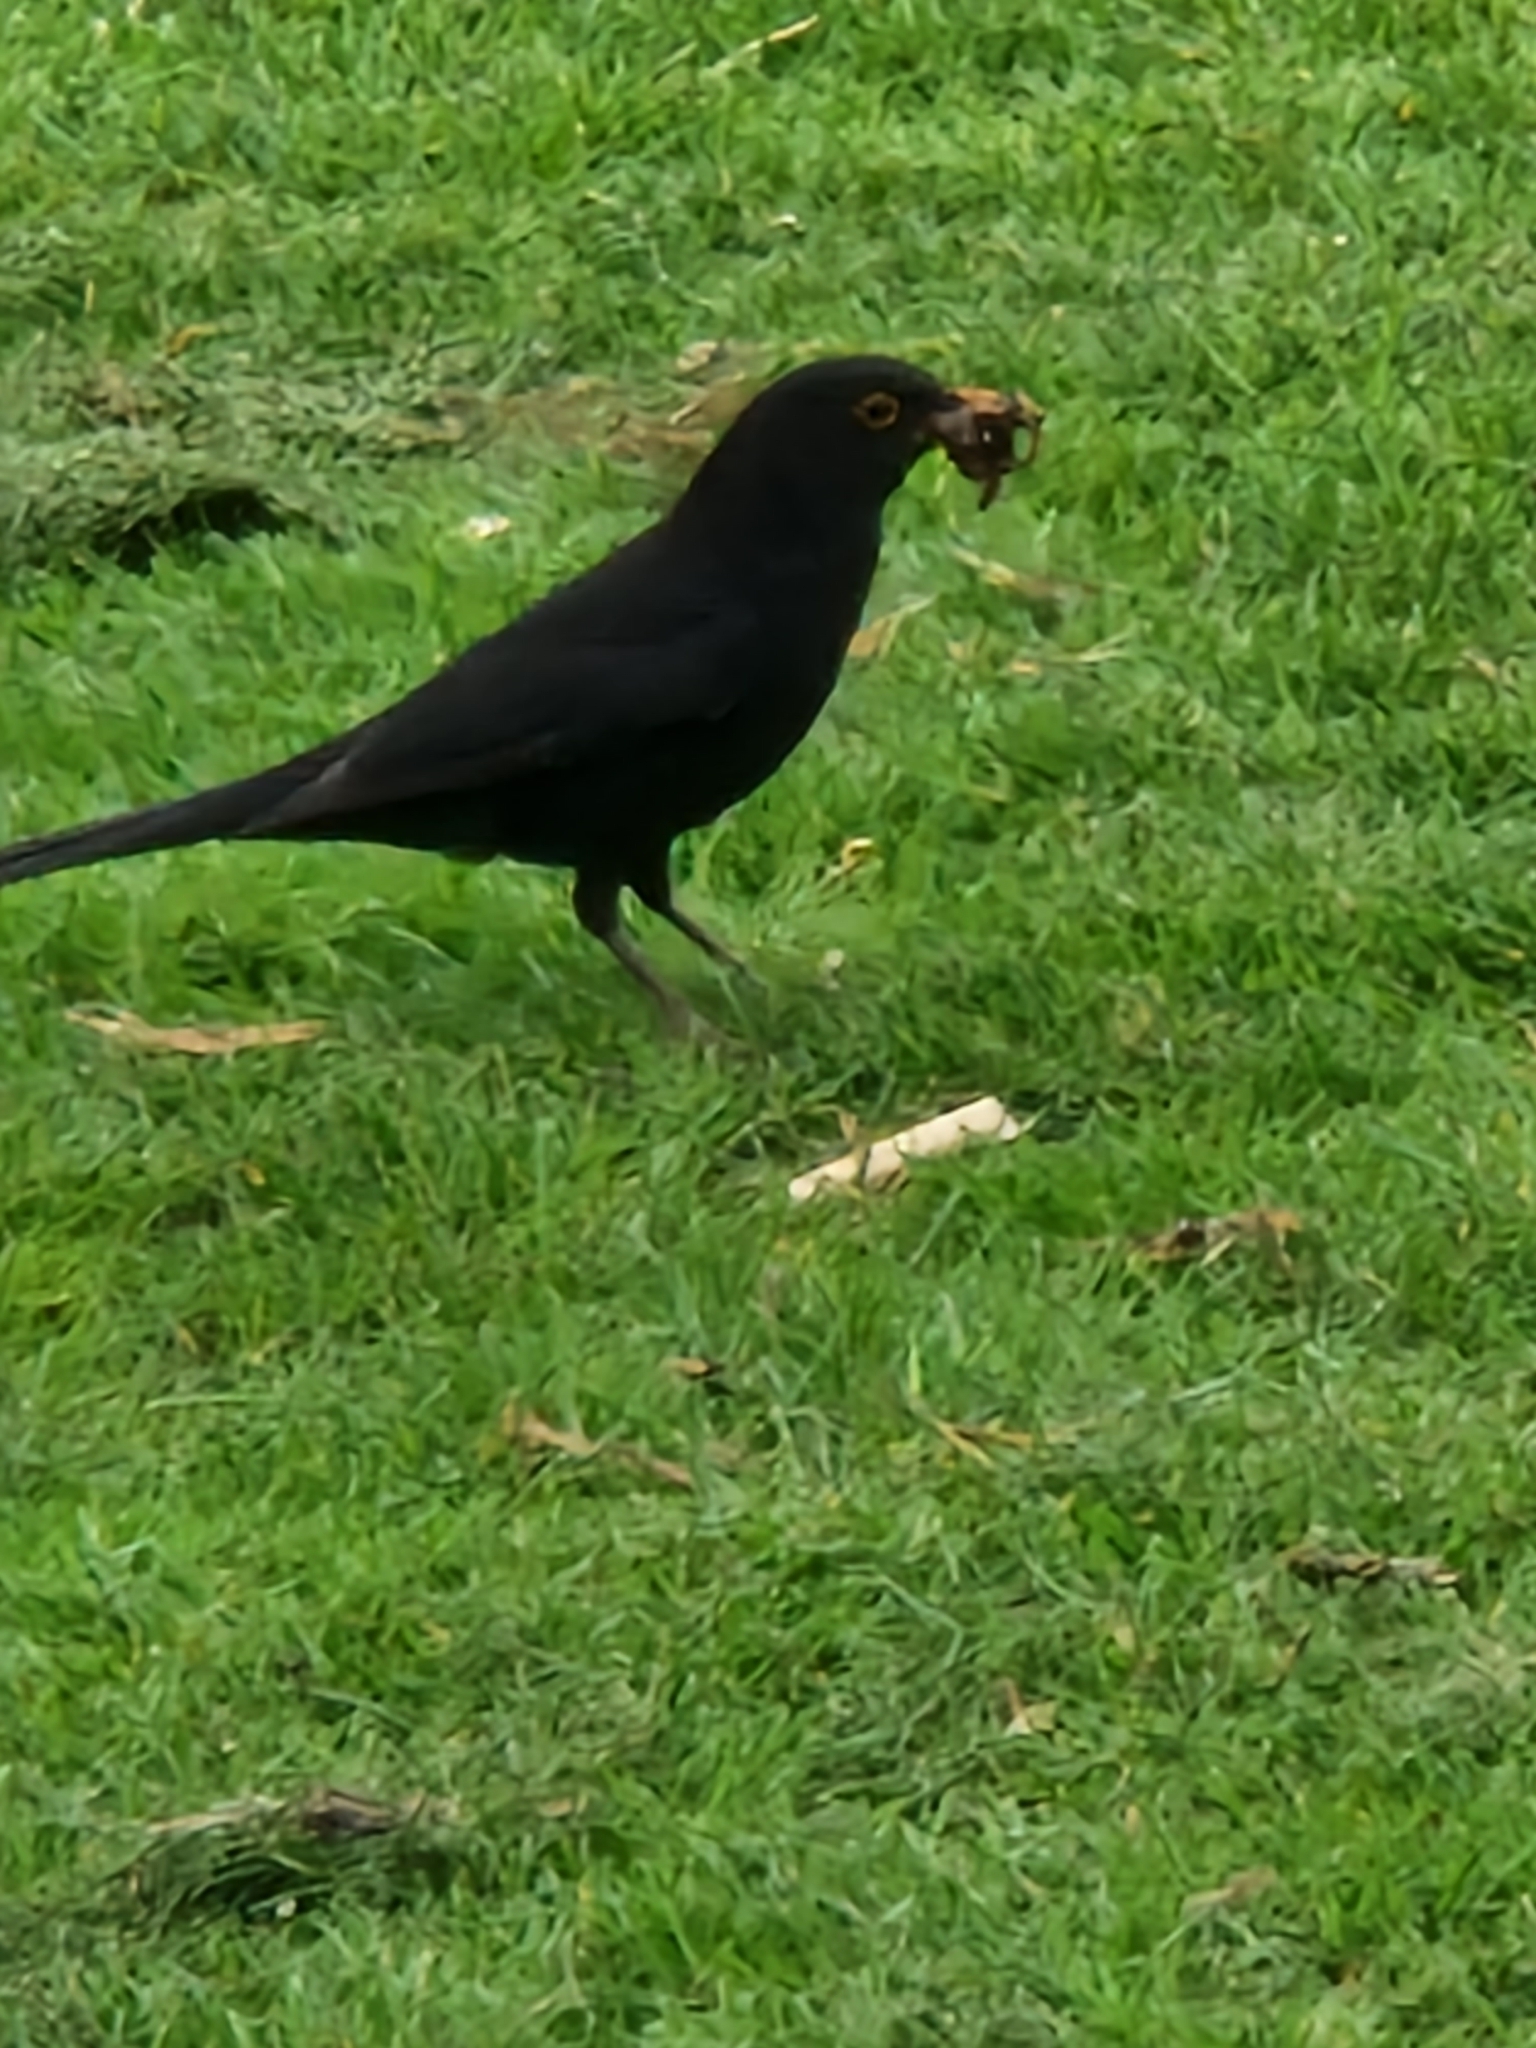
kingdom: Animalia
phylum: Chordata
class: Aves
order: Passeriformes
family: Turdidae
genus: Turdus
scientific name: Turdus merula
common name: Common blackbird
